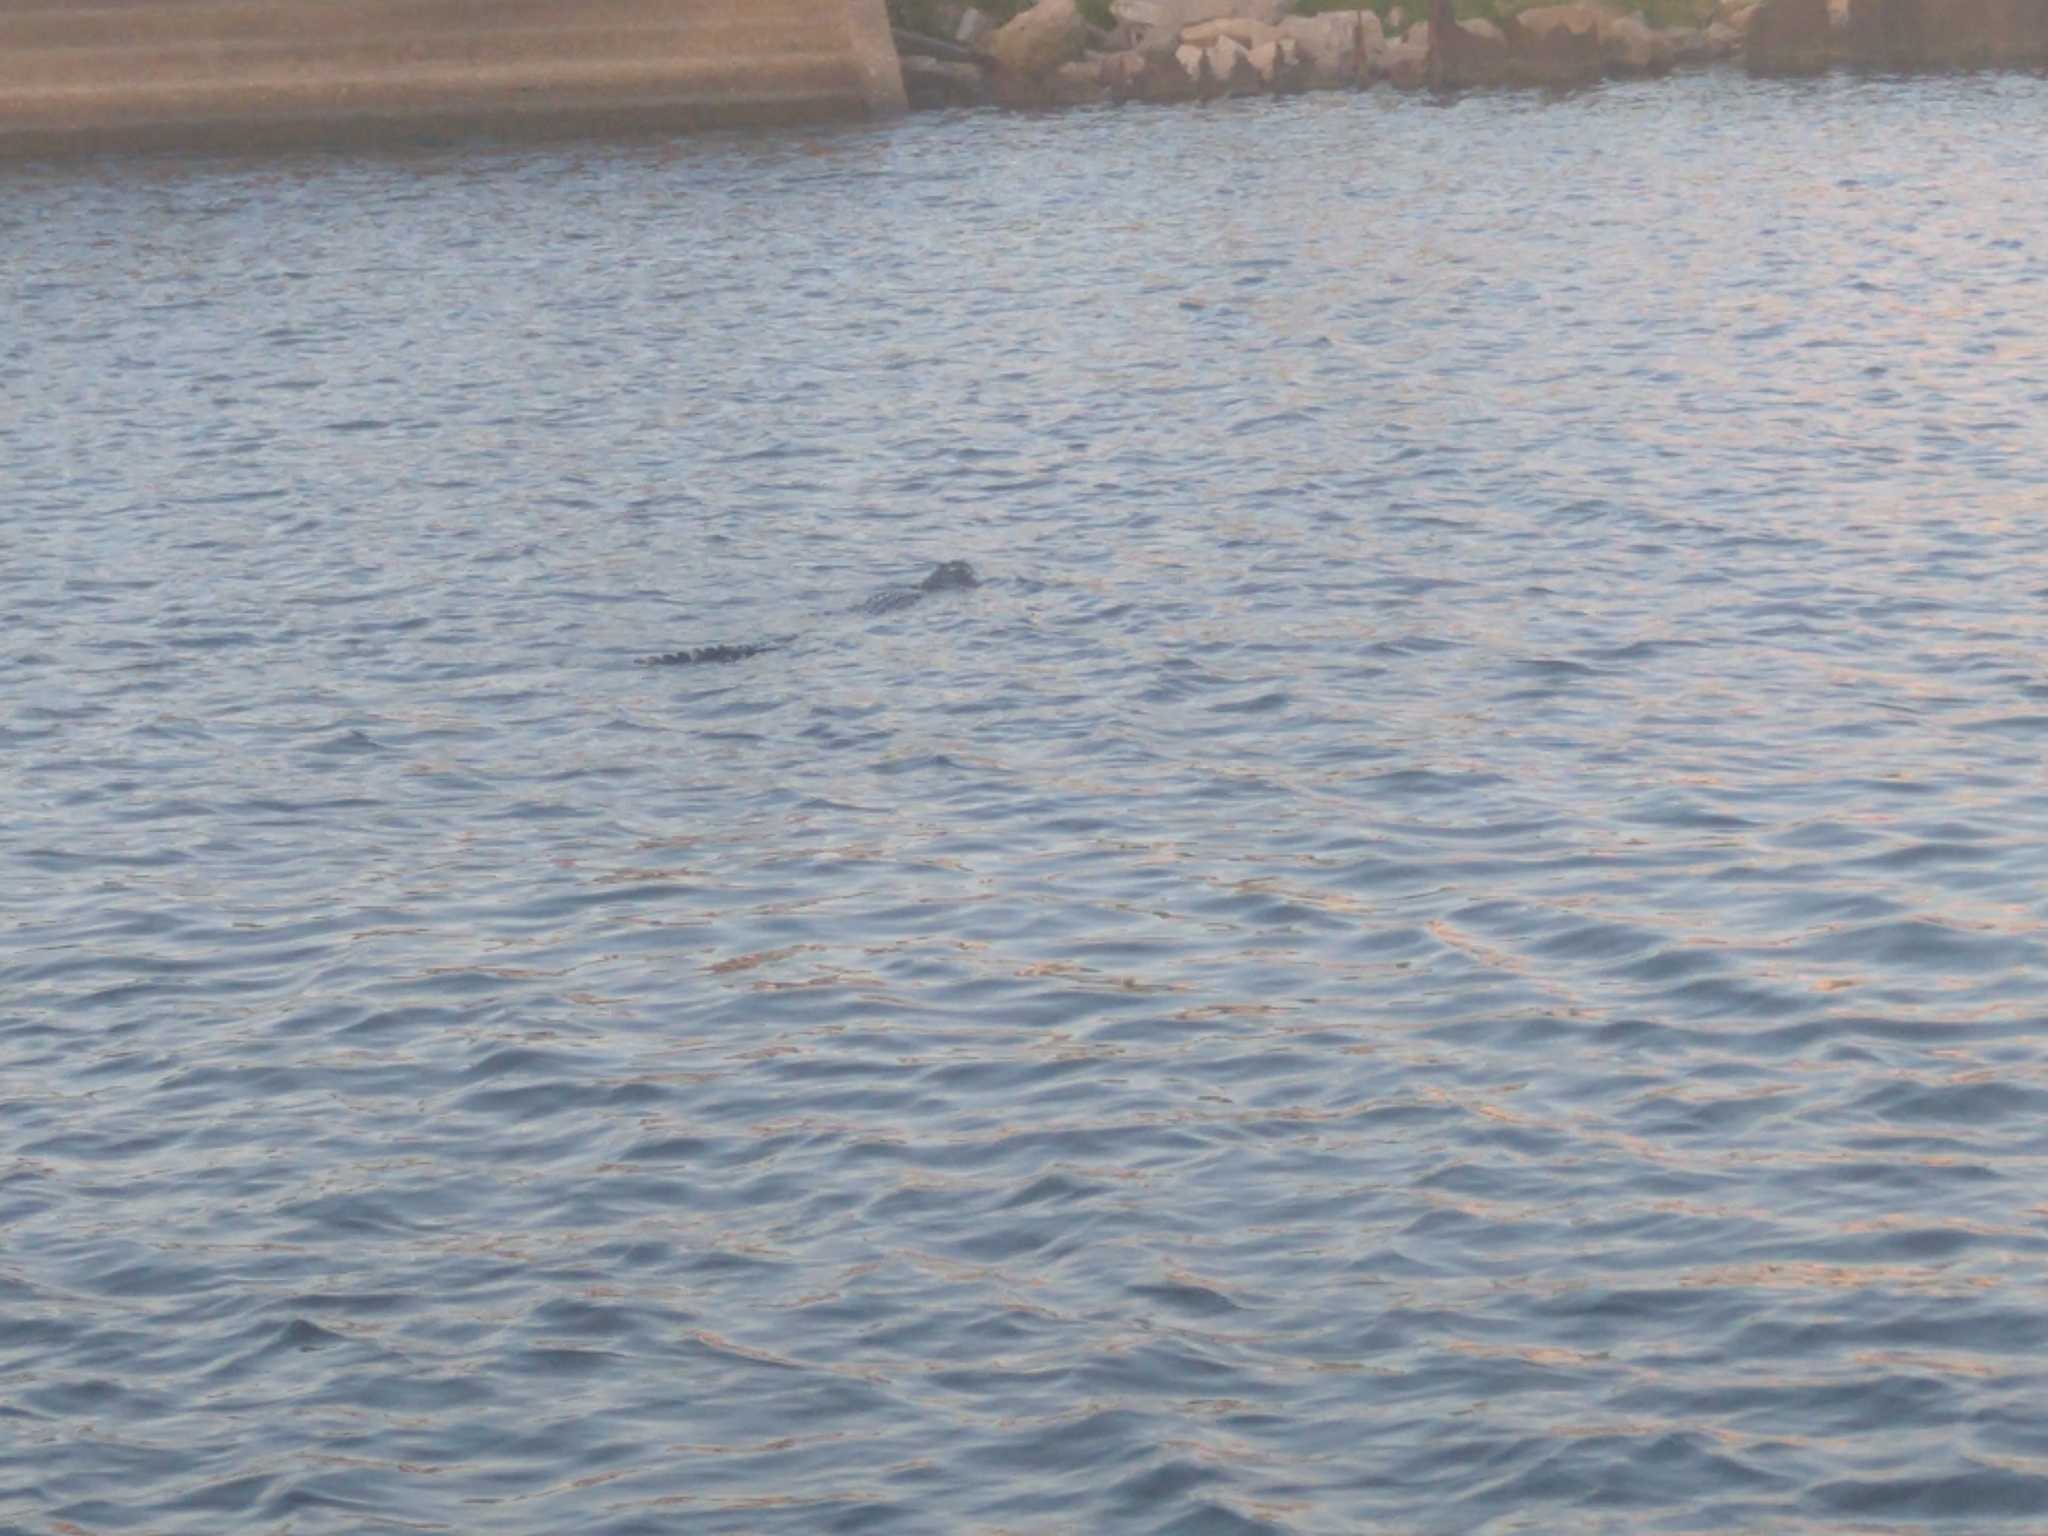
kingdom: Animalia
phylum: Chordata
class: Crocodylia
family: Alligatoridae
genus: Alligator
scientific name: Alligator mississippiensis
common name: American alligator
